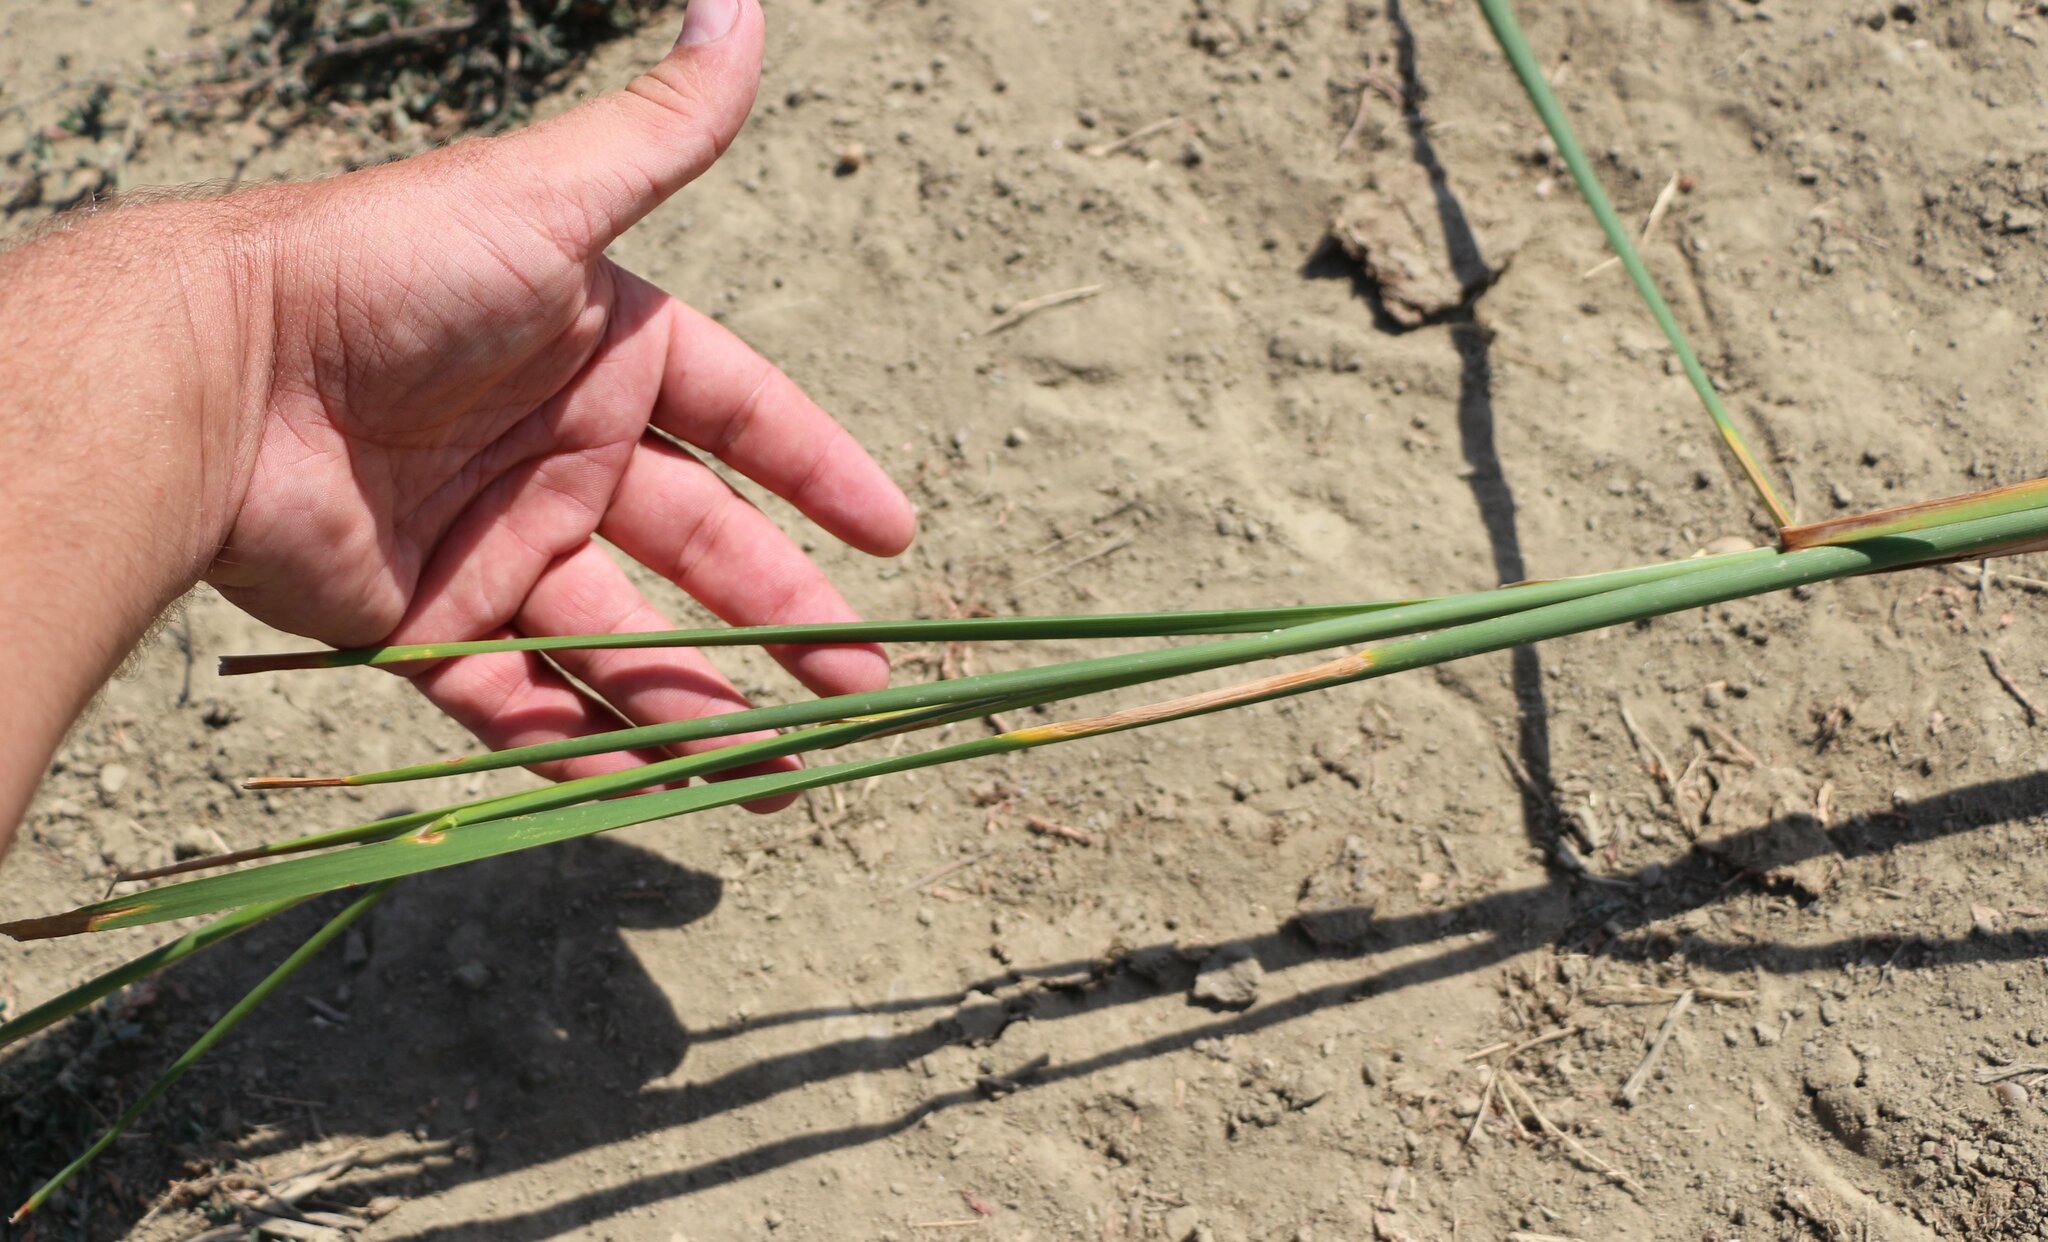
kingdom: Plantae
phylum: Tracheophyta
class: Liliopsida
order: Poales
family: Typhaceae
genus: Typha
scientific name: Typha laxmannii
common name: Laxman’s bulrush
